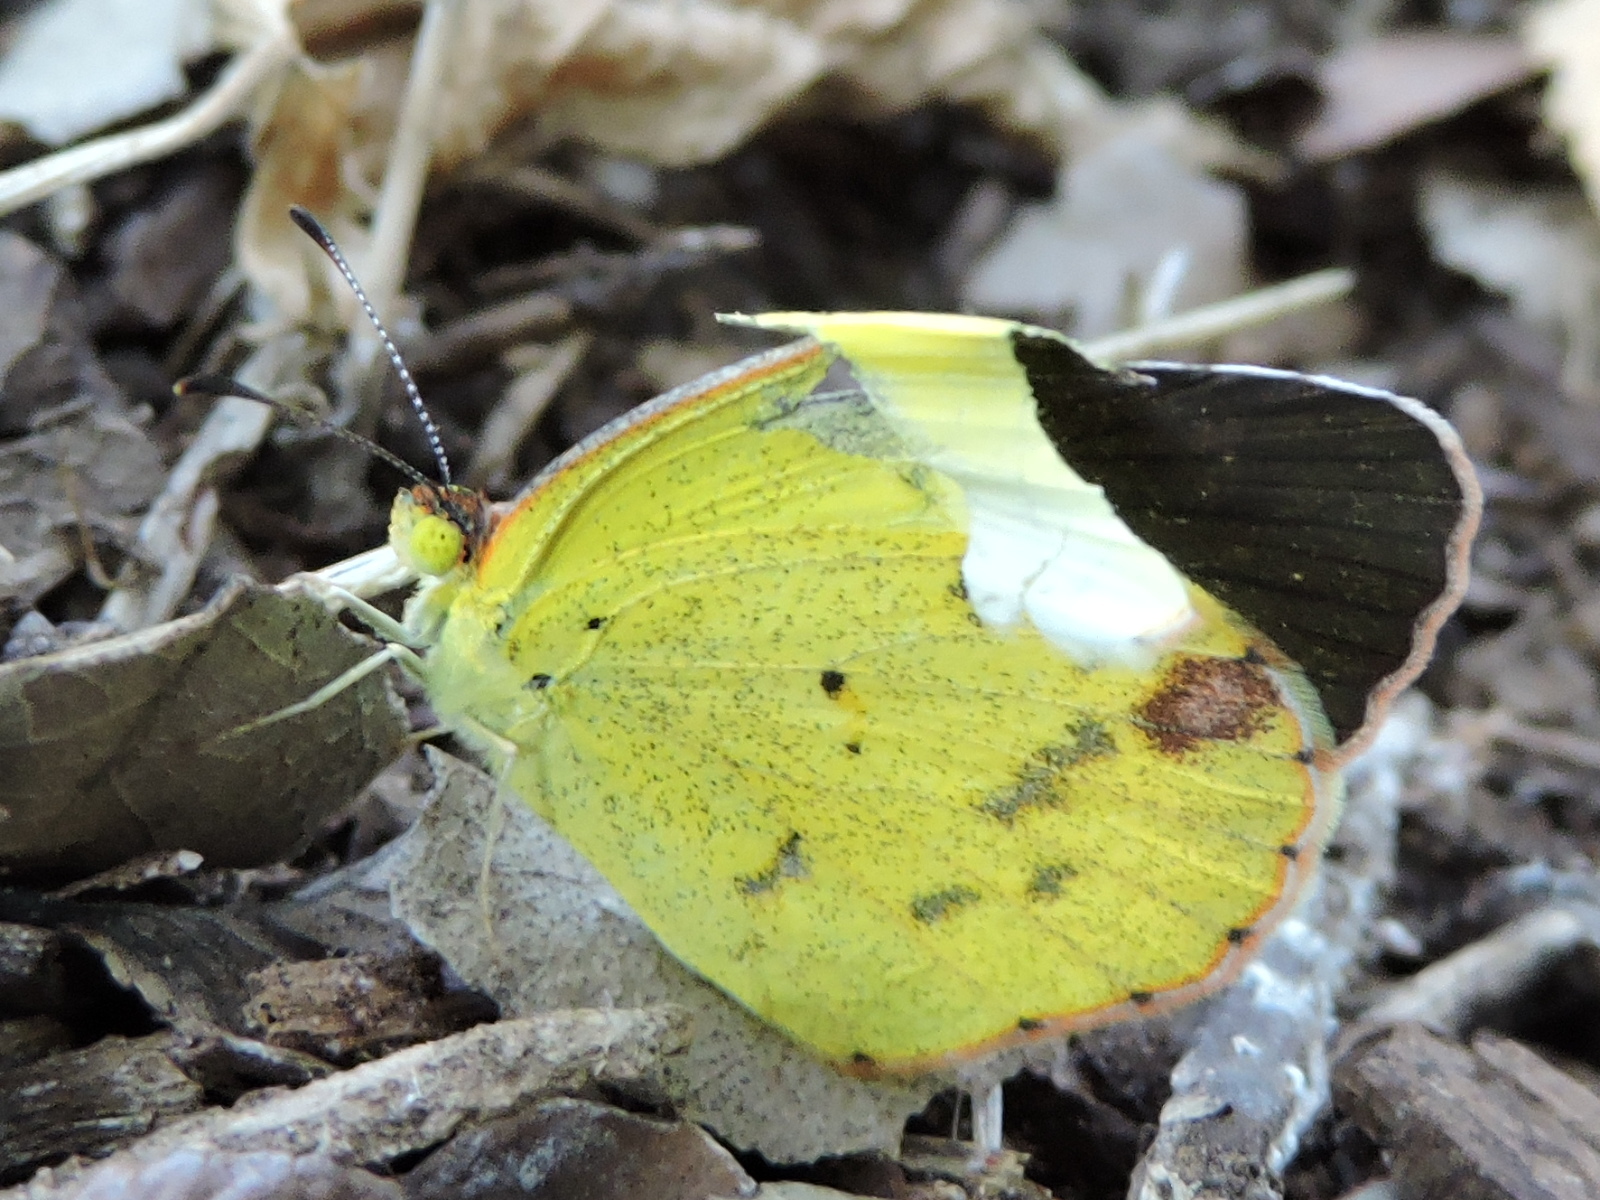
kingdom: Animalia
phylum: Arthropoda
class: Insecta
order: Lepidoptera
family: Pieridae
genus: Pyrisitia
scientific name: Pyrisitia lisa
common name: Little yellow
